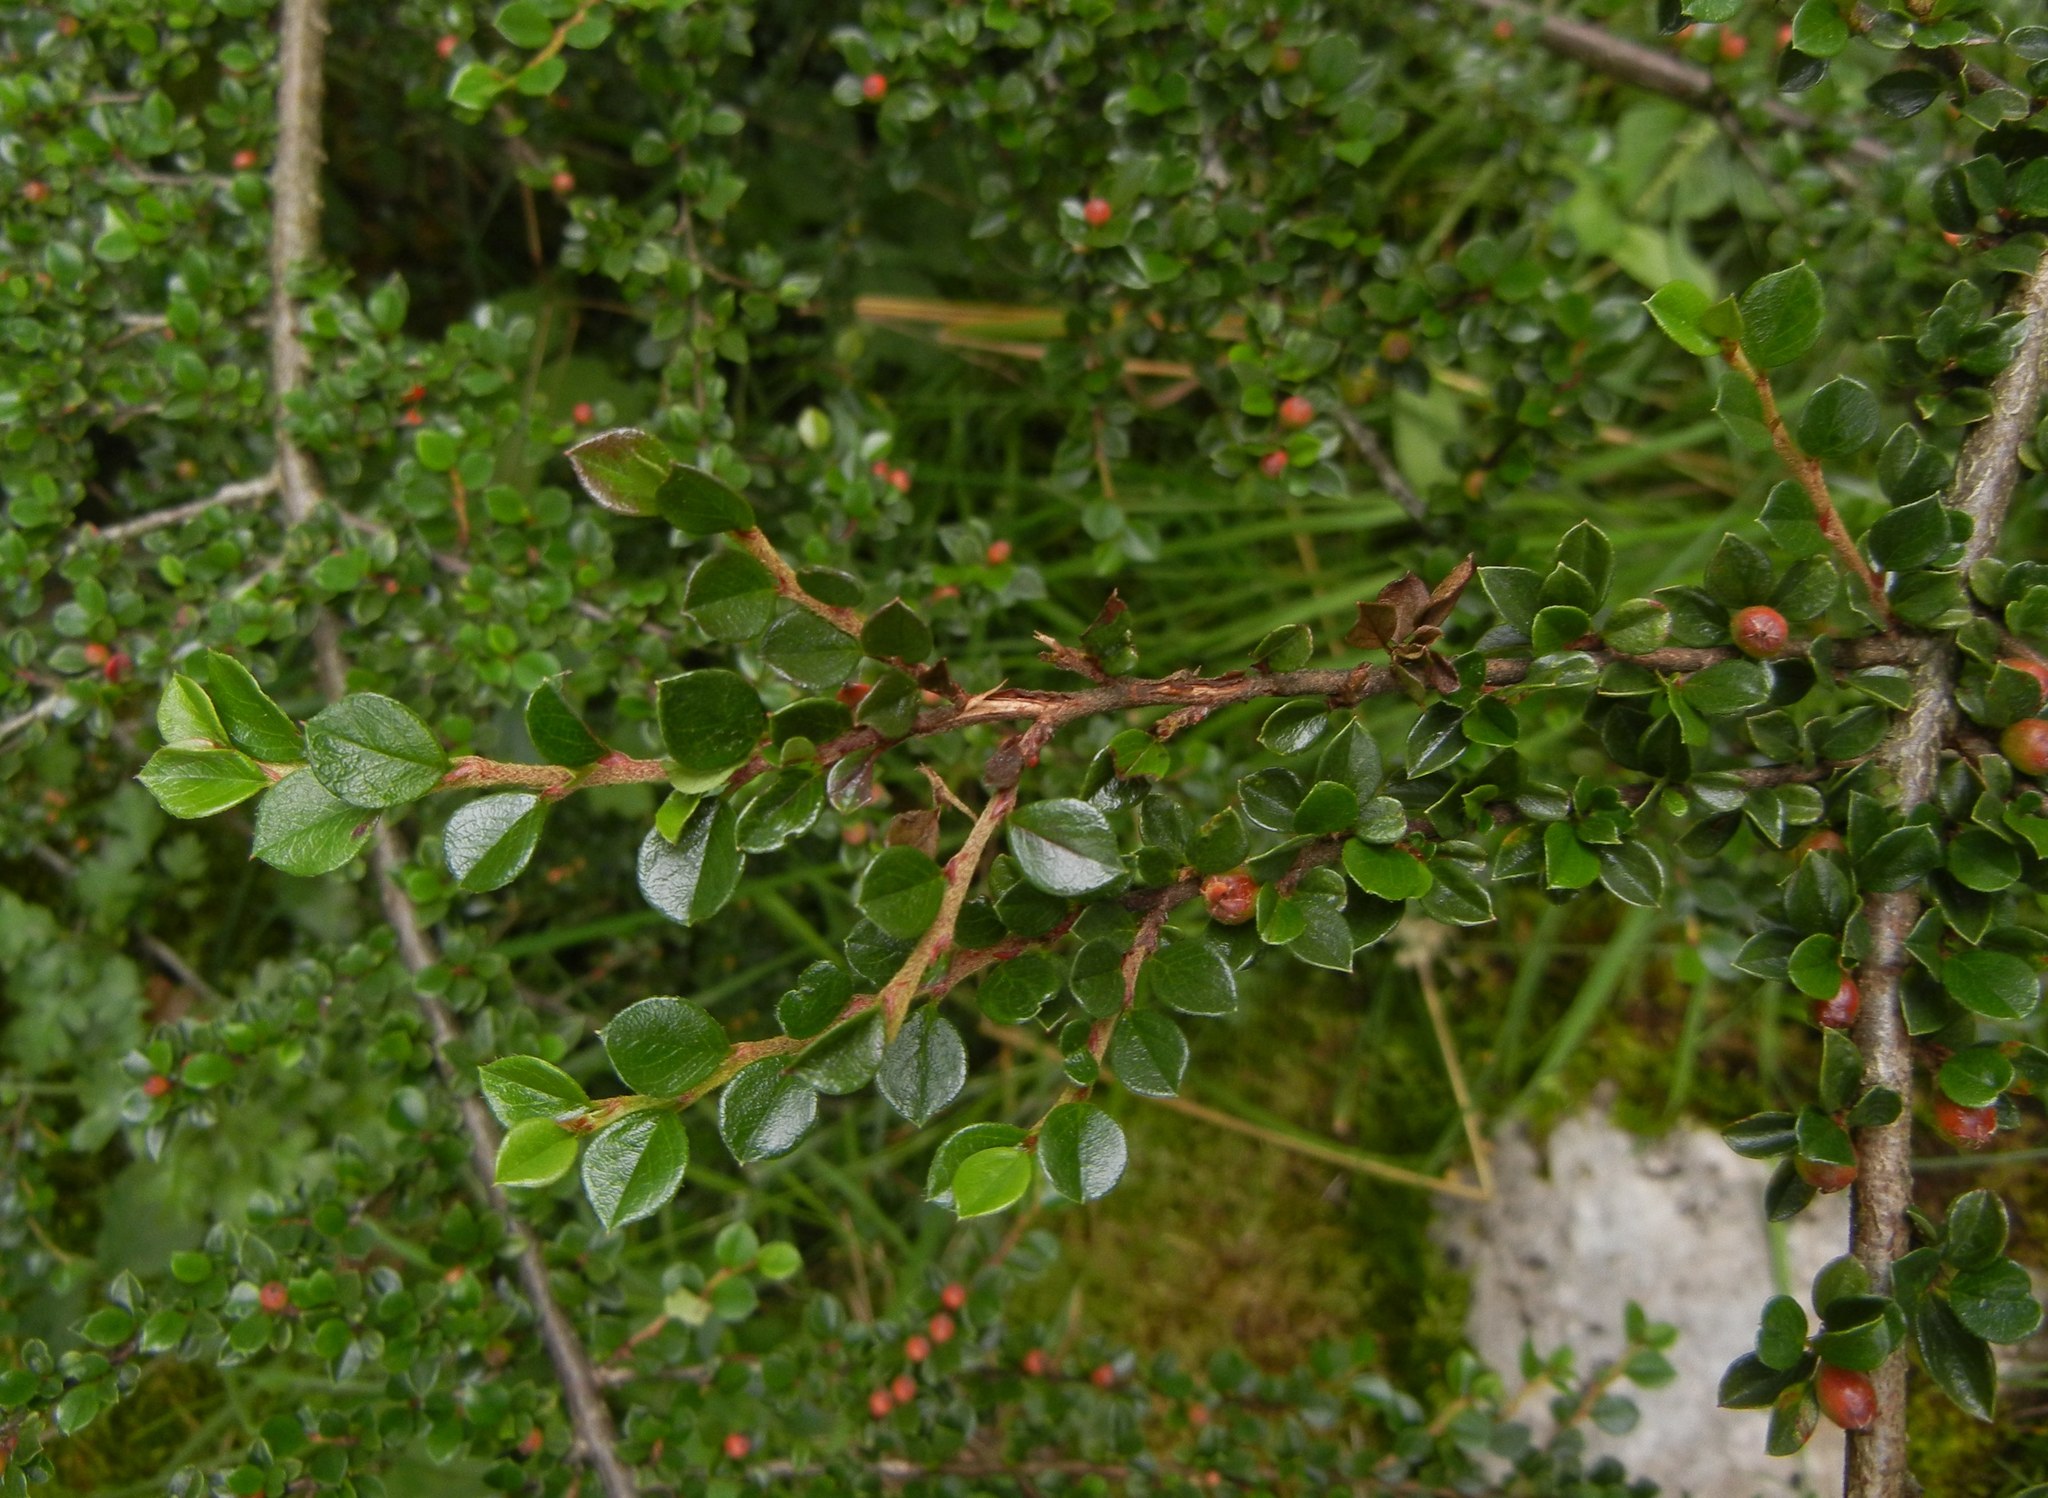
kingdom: Plantae
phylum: Tracheophyta
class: Magnoliopsida
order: Rosales
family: Rosaceae
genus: Cotoneaster
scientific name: Cotoneaster horizontalis
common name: Wall cotoneaster
